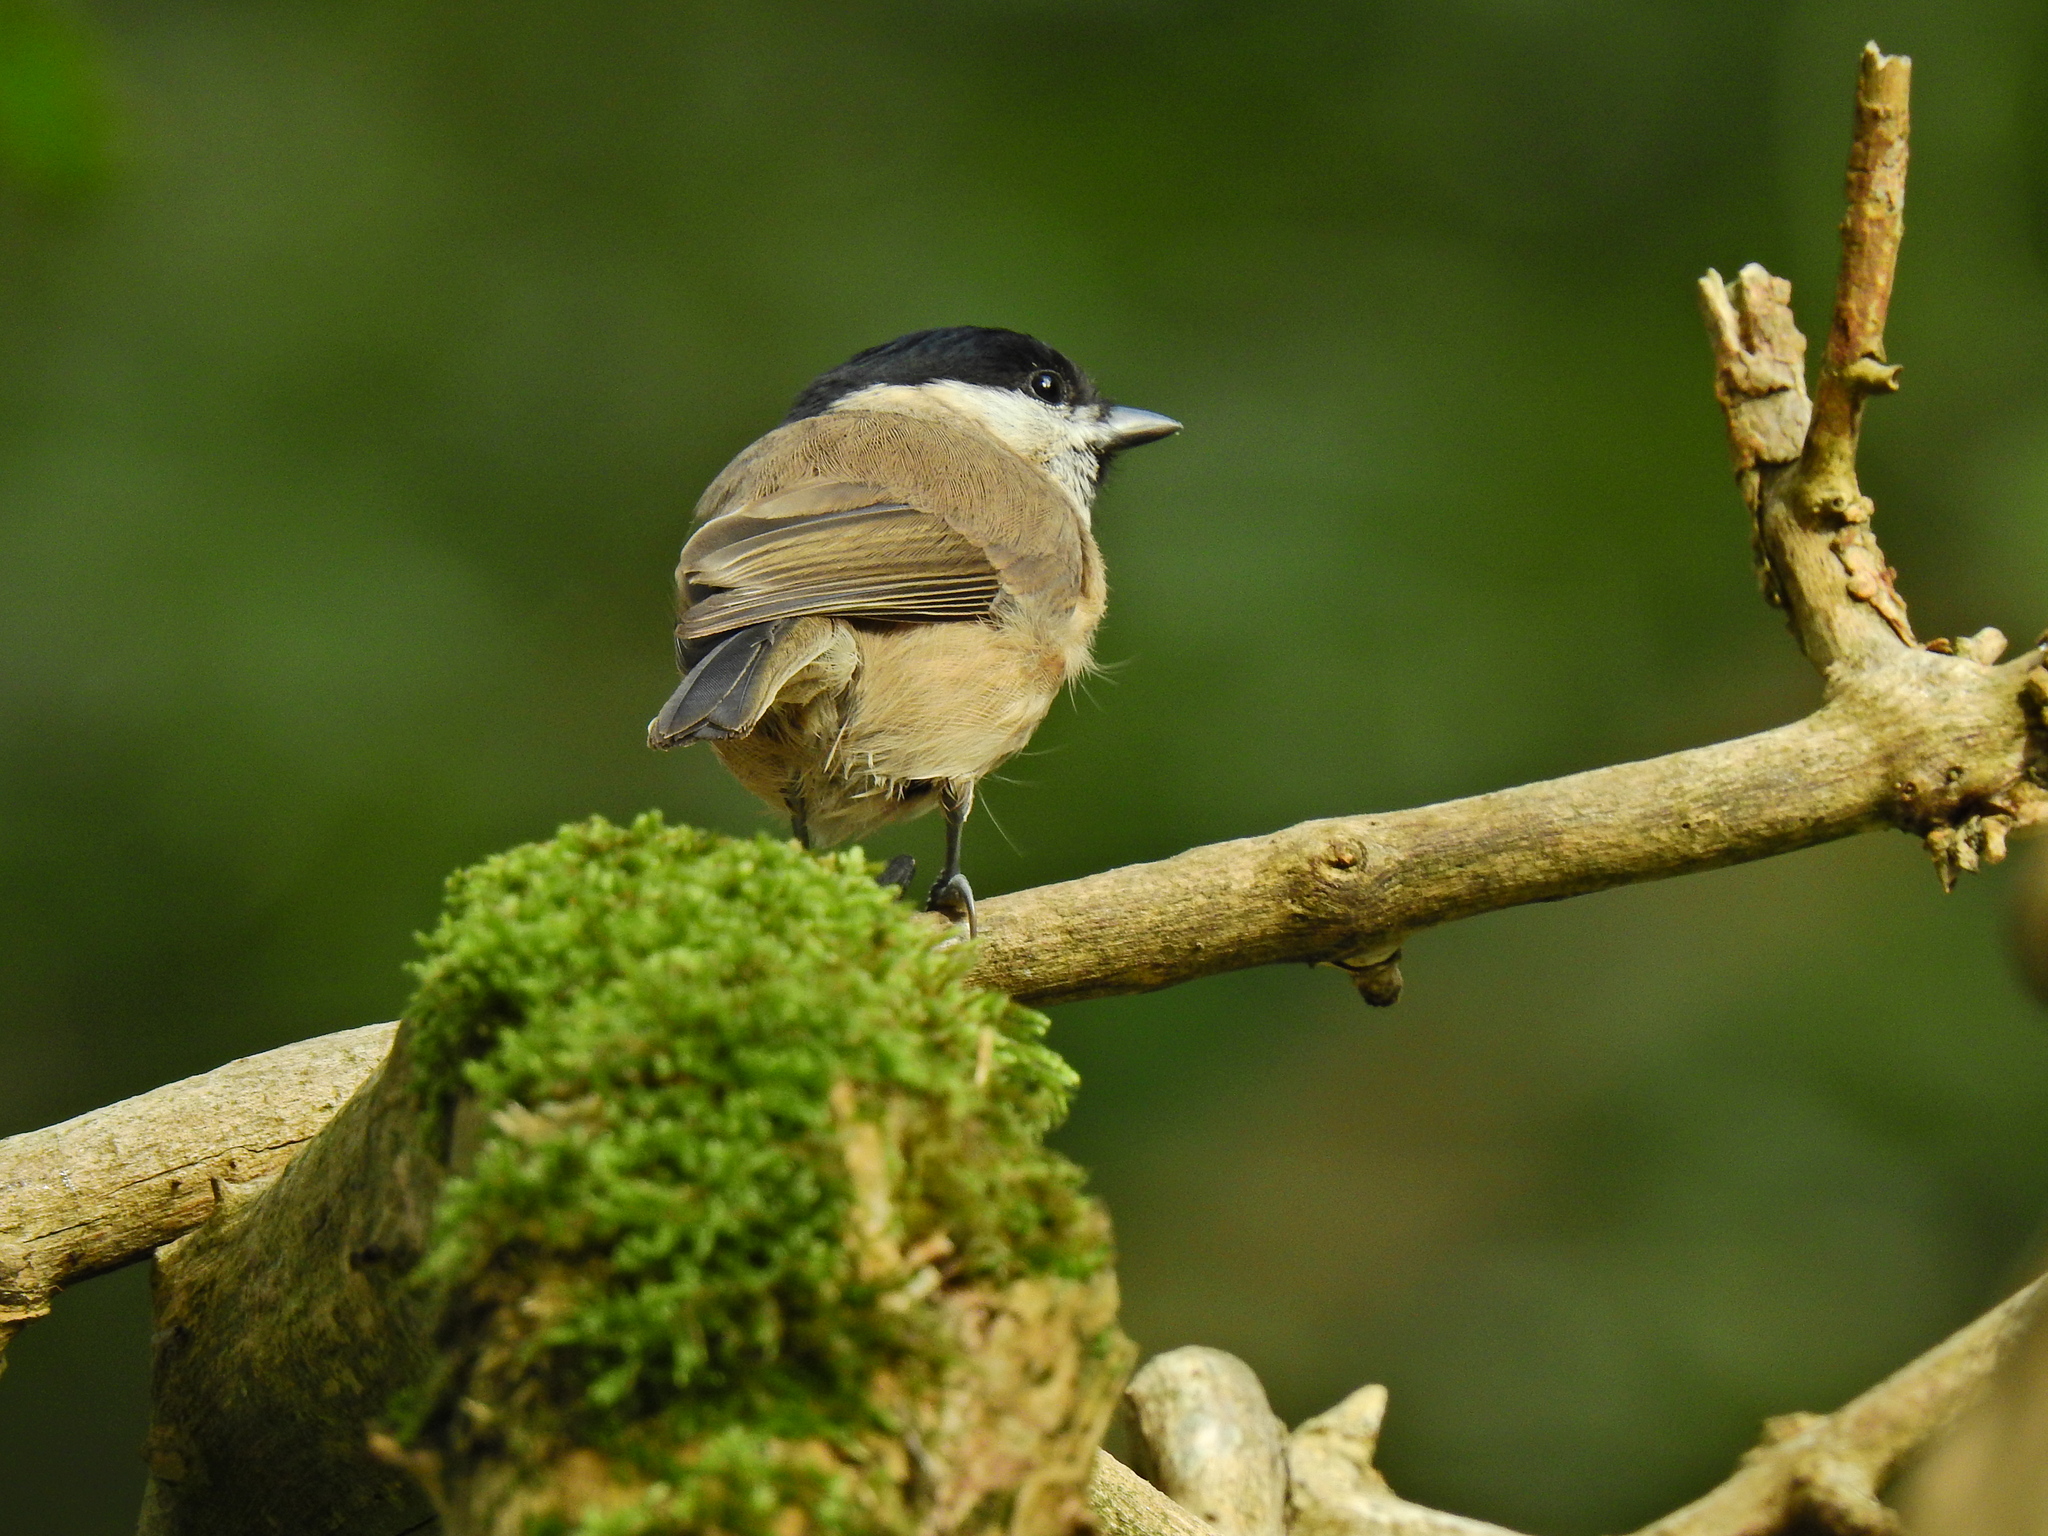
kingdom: Animalia
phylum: Chordata
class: Aves
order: Passeriformes
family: Paridae
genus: Poecile
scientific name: Poecile palustris
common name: Marsh tit
